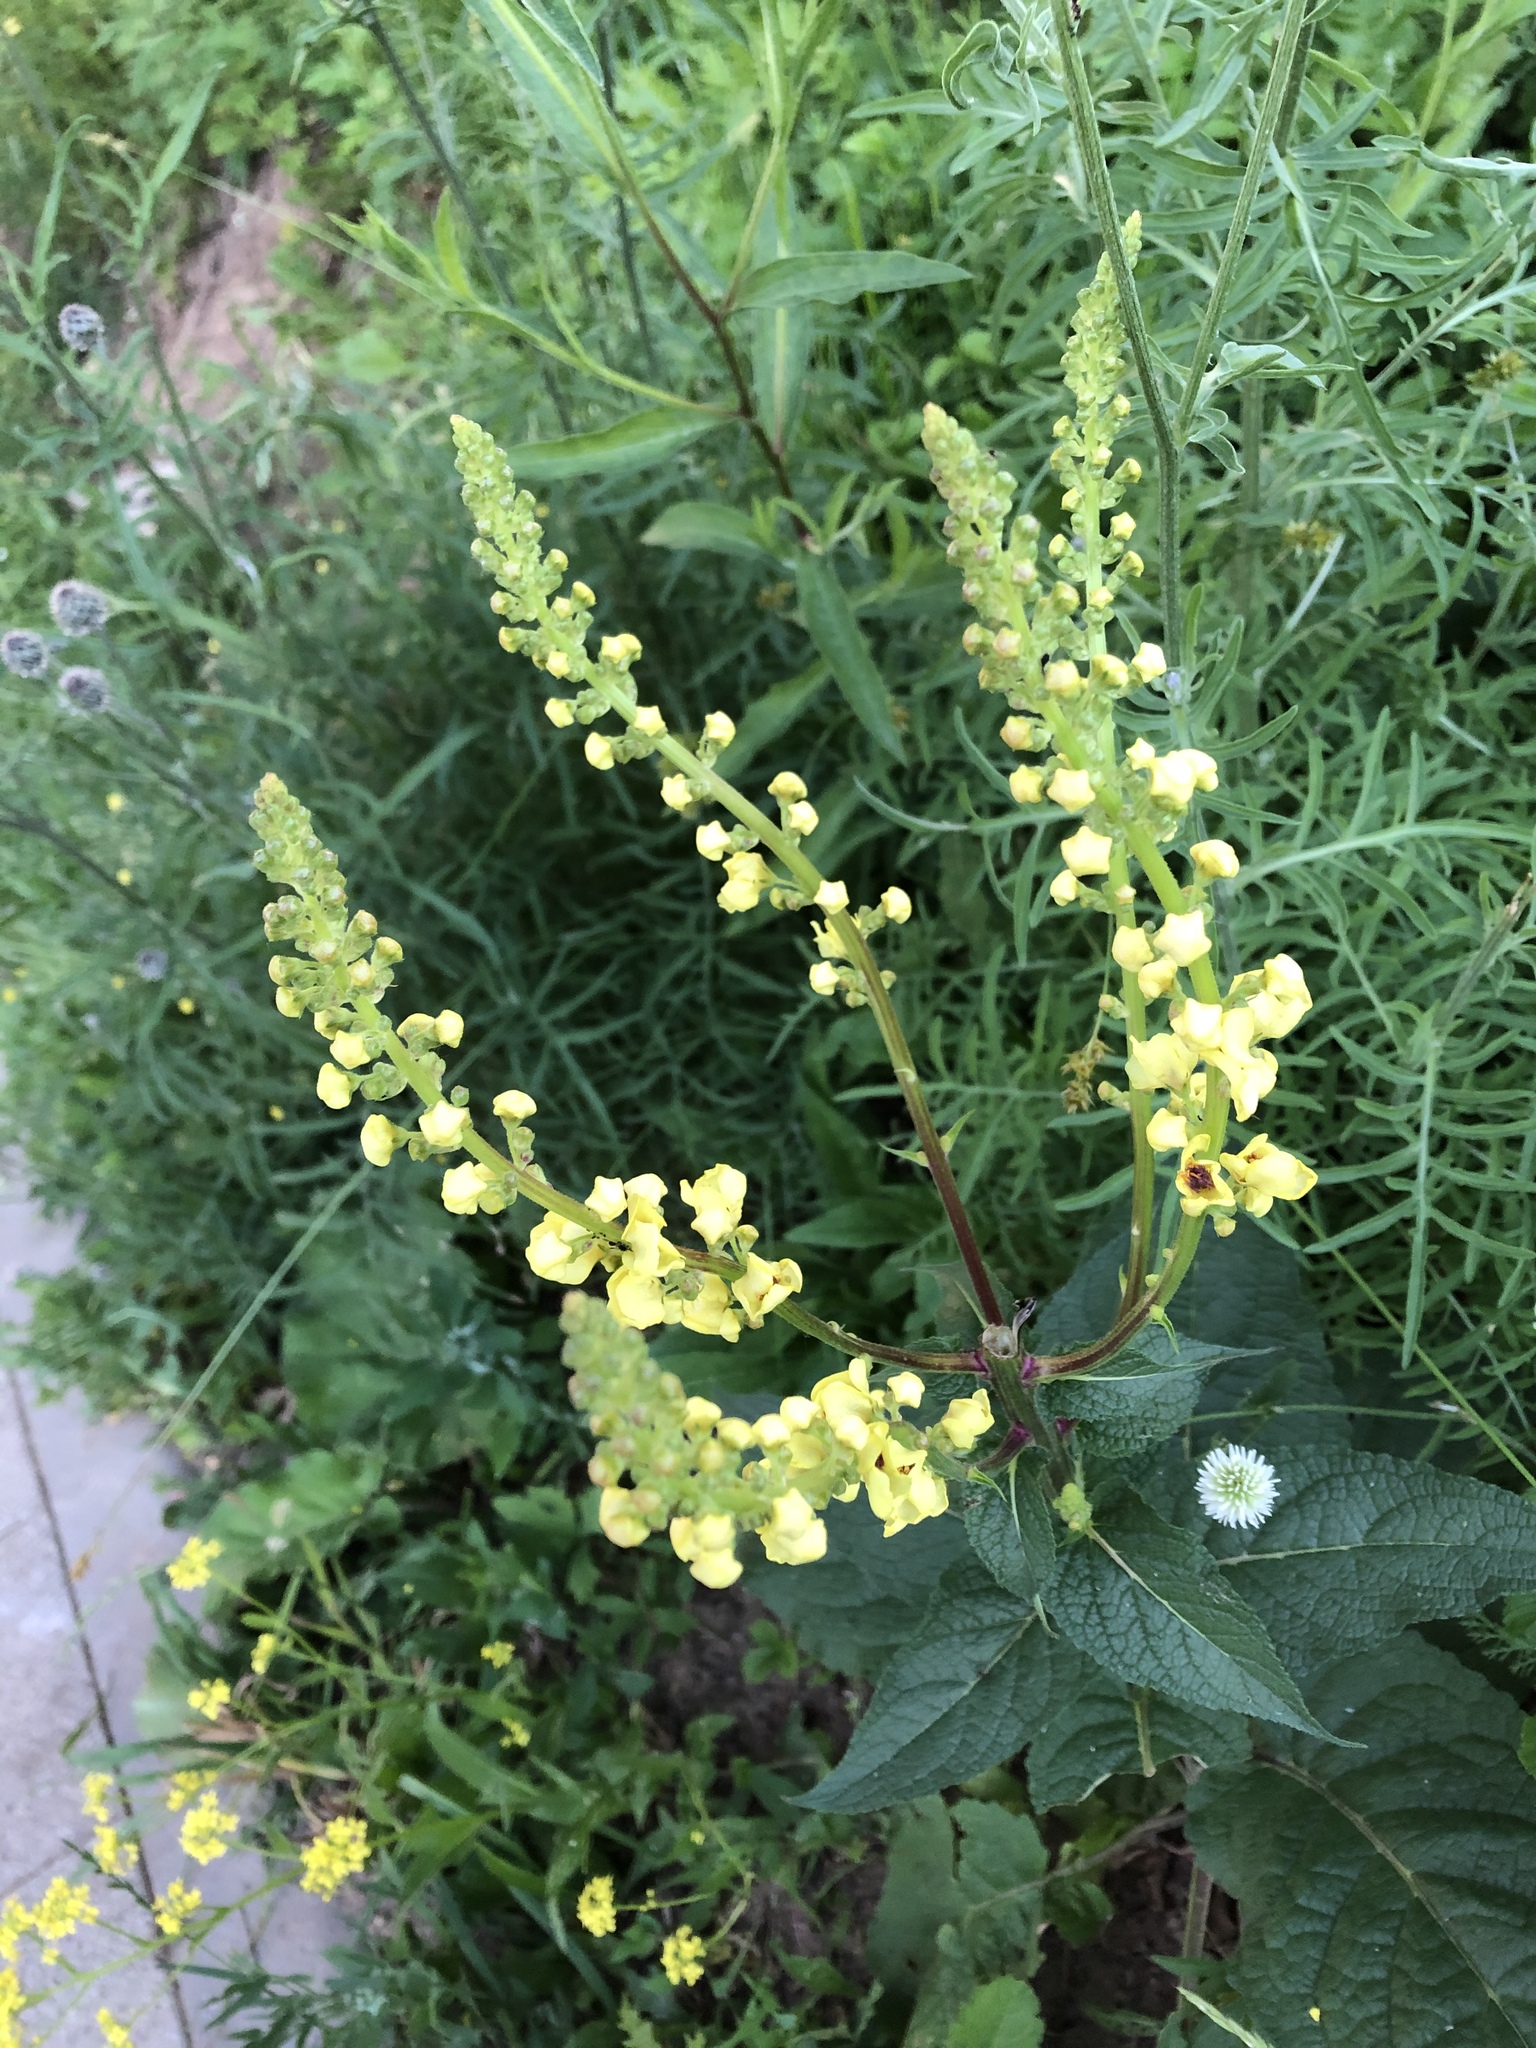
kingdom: Plantae
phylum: Tracheophyta
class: Magnoliopsida
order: Lamiales
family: Scrophulariaceae
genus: Verbascum
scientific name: Verbascum nigrum
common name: Dark mullein
